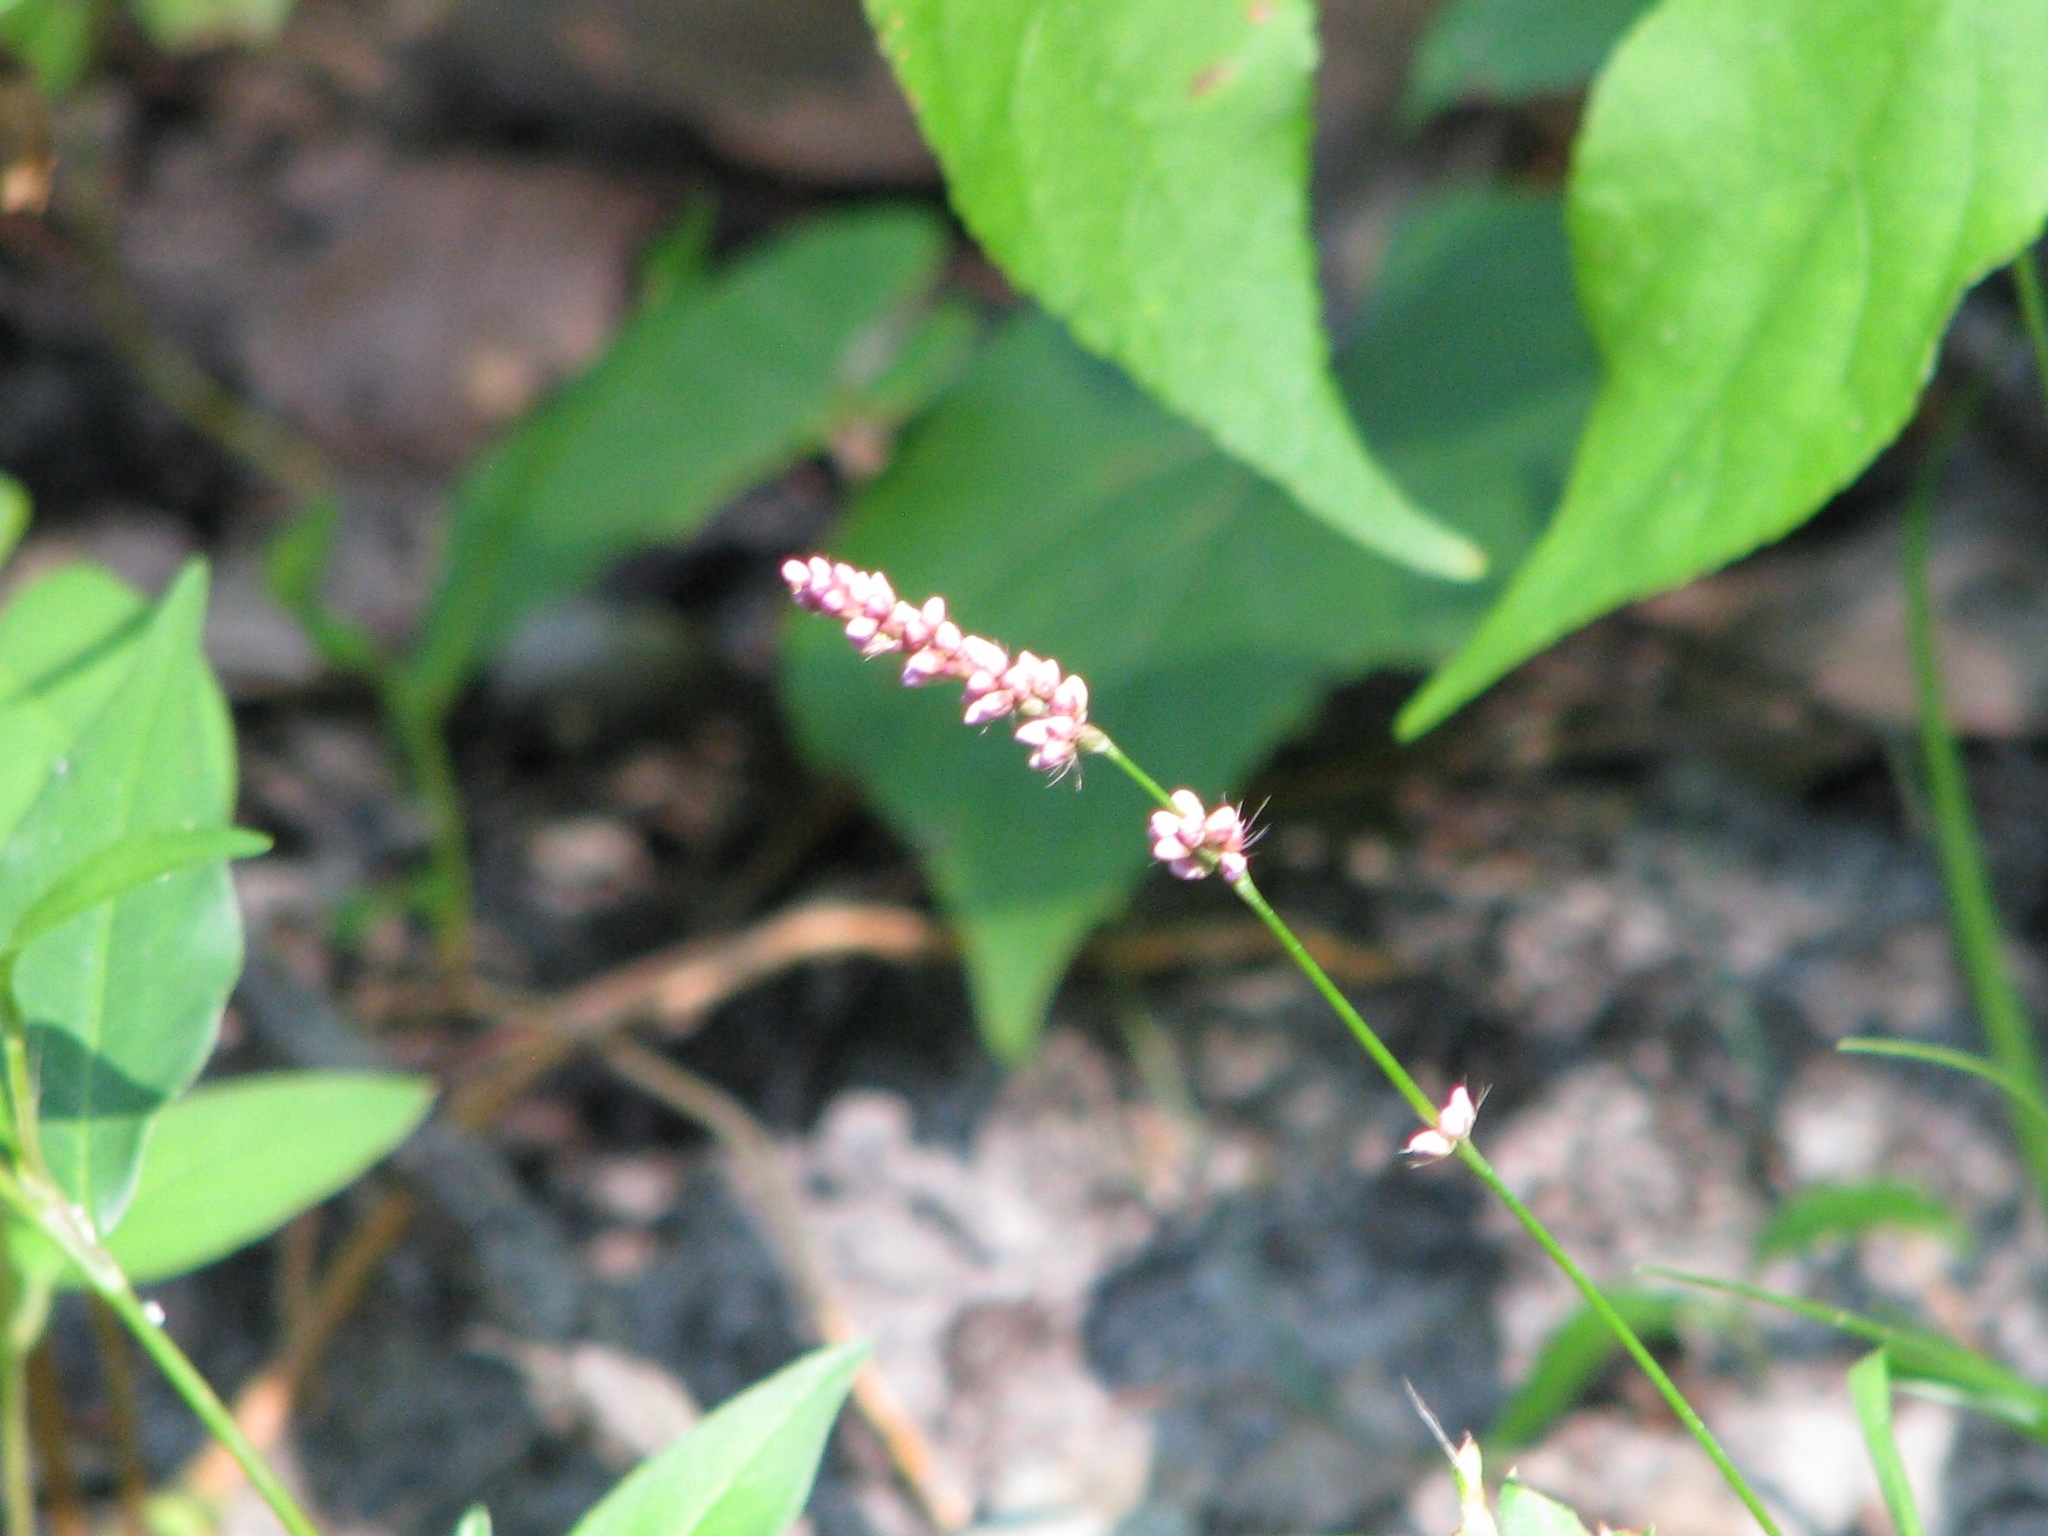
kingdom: Plantae
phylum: Tracheophyta
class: Magnoliopsida
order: Caryophyllales
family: Polygonaceae
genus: Persicaria
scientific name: Persicaria longiseta
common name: Bristly lady's-thumb
